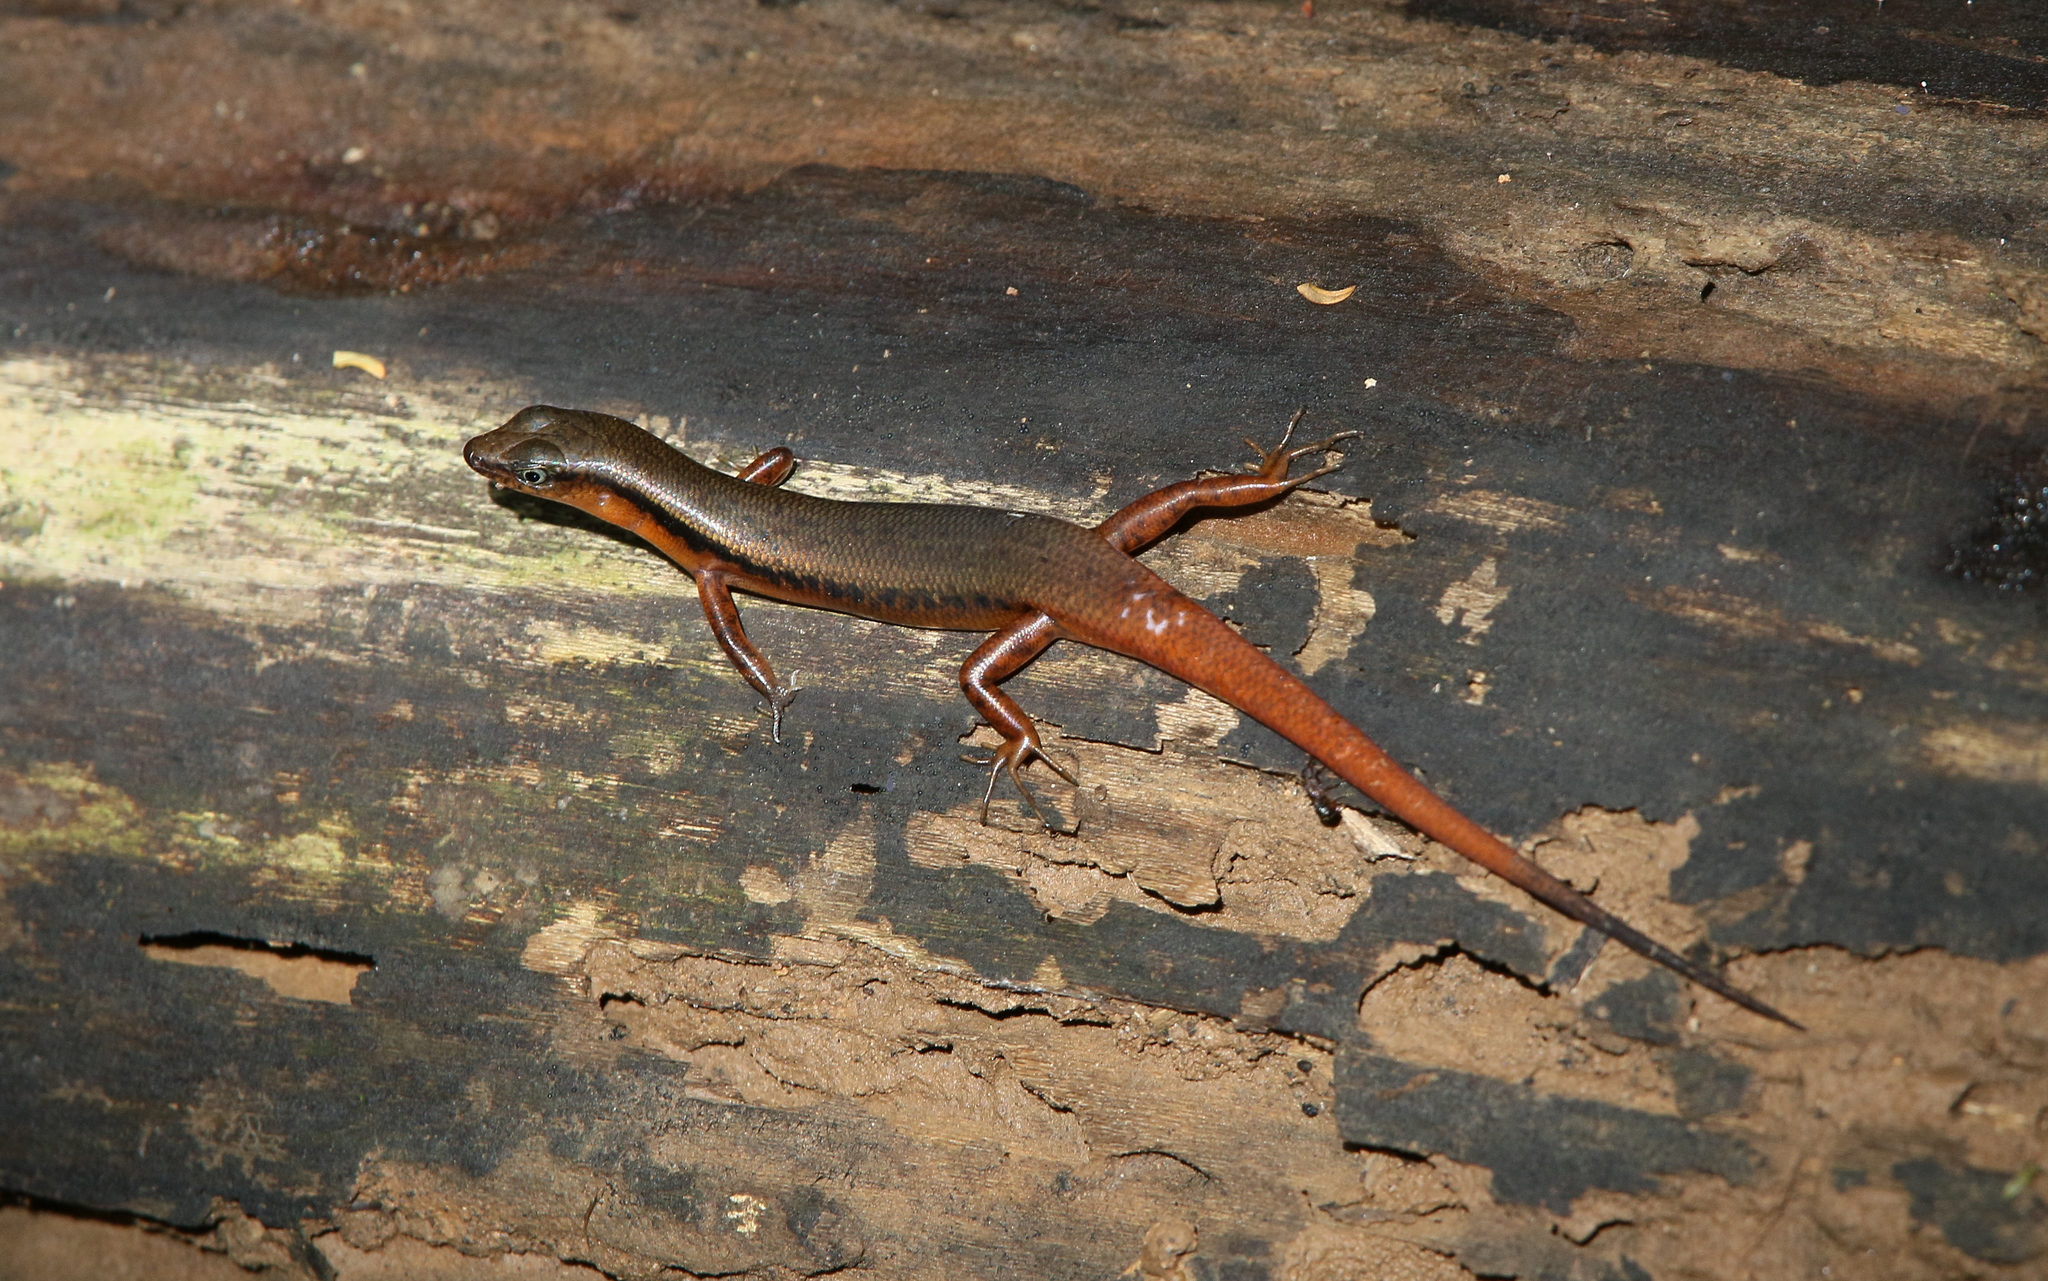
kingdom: Animalia
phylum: Chordata
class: Squamata
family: Scincidae
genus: Scincella
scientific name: Scincella rufocaudata
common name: Red-tailed ground skink
